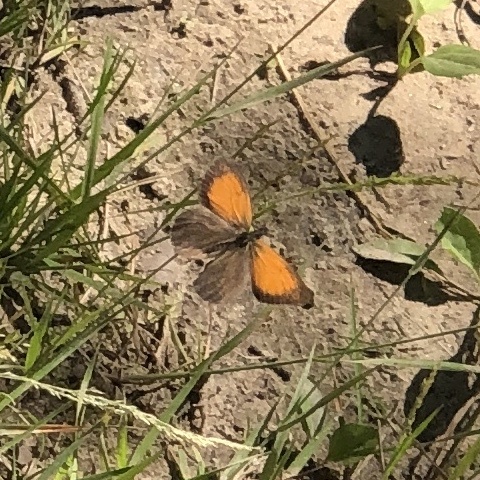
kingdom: Animalia
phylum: Arthropoda
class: Insecta
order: Lepidoptera
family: Nymphalidae
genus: Coenonympha
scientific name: Coenonympha arcania
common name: Pearly heath
